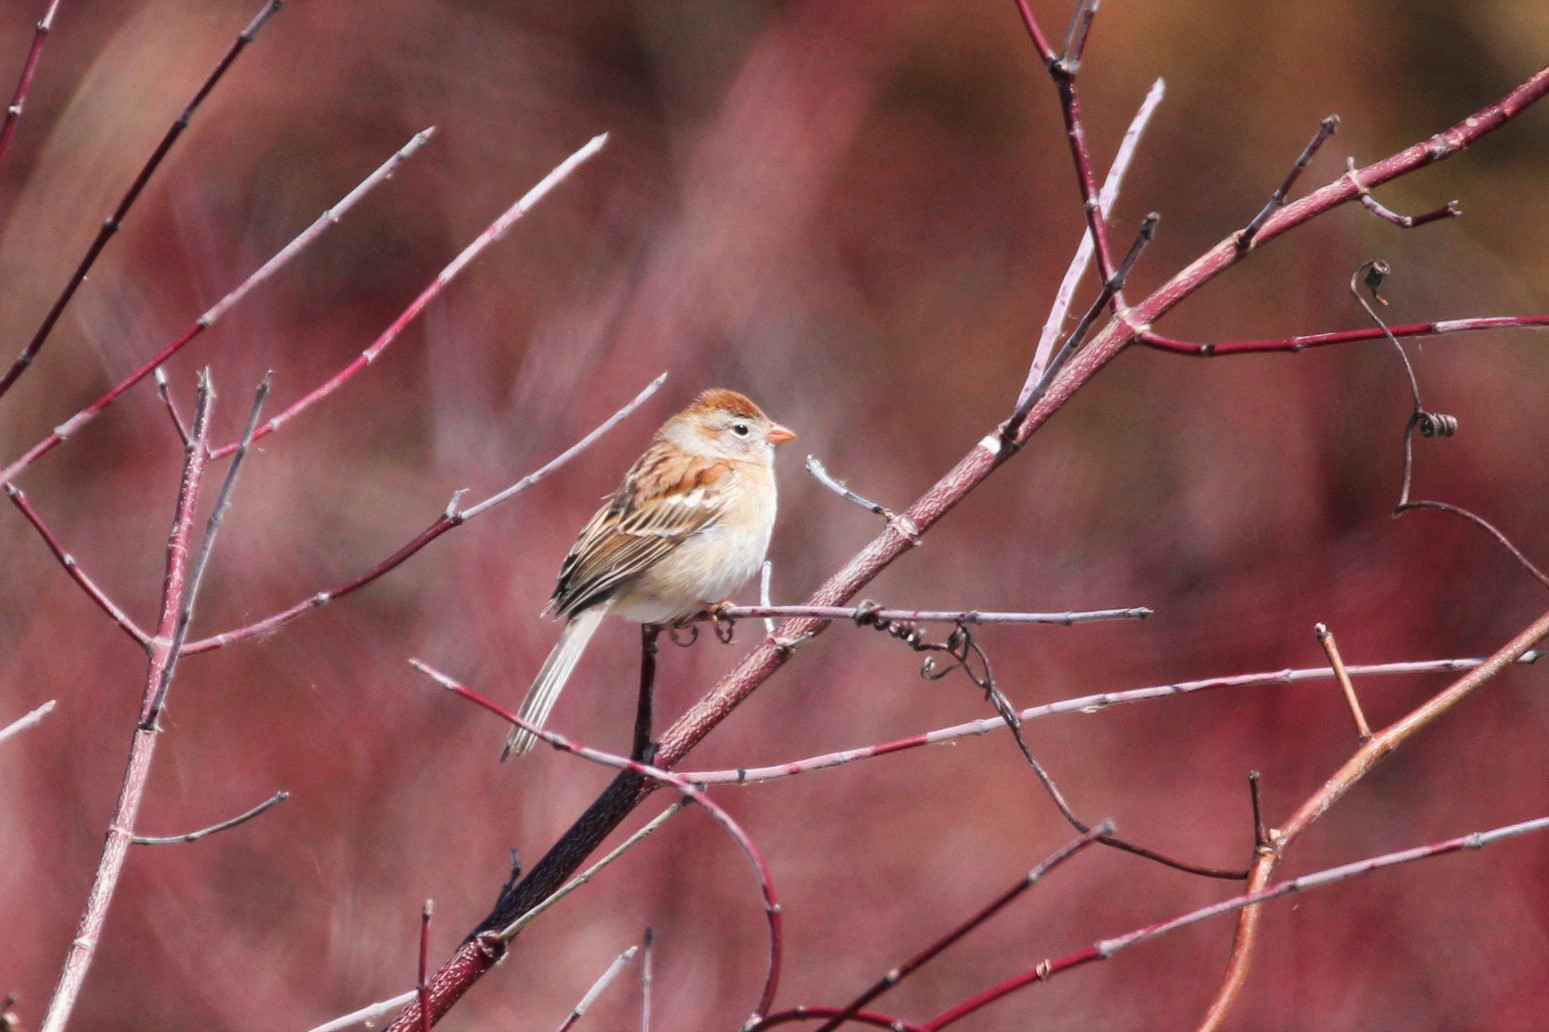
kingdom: Animalia
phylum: Chordata
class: Aves
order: Passeriformes
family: Passerellidae
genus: Spizella
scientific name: Spizella pusilla
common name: Field sparrow
